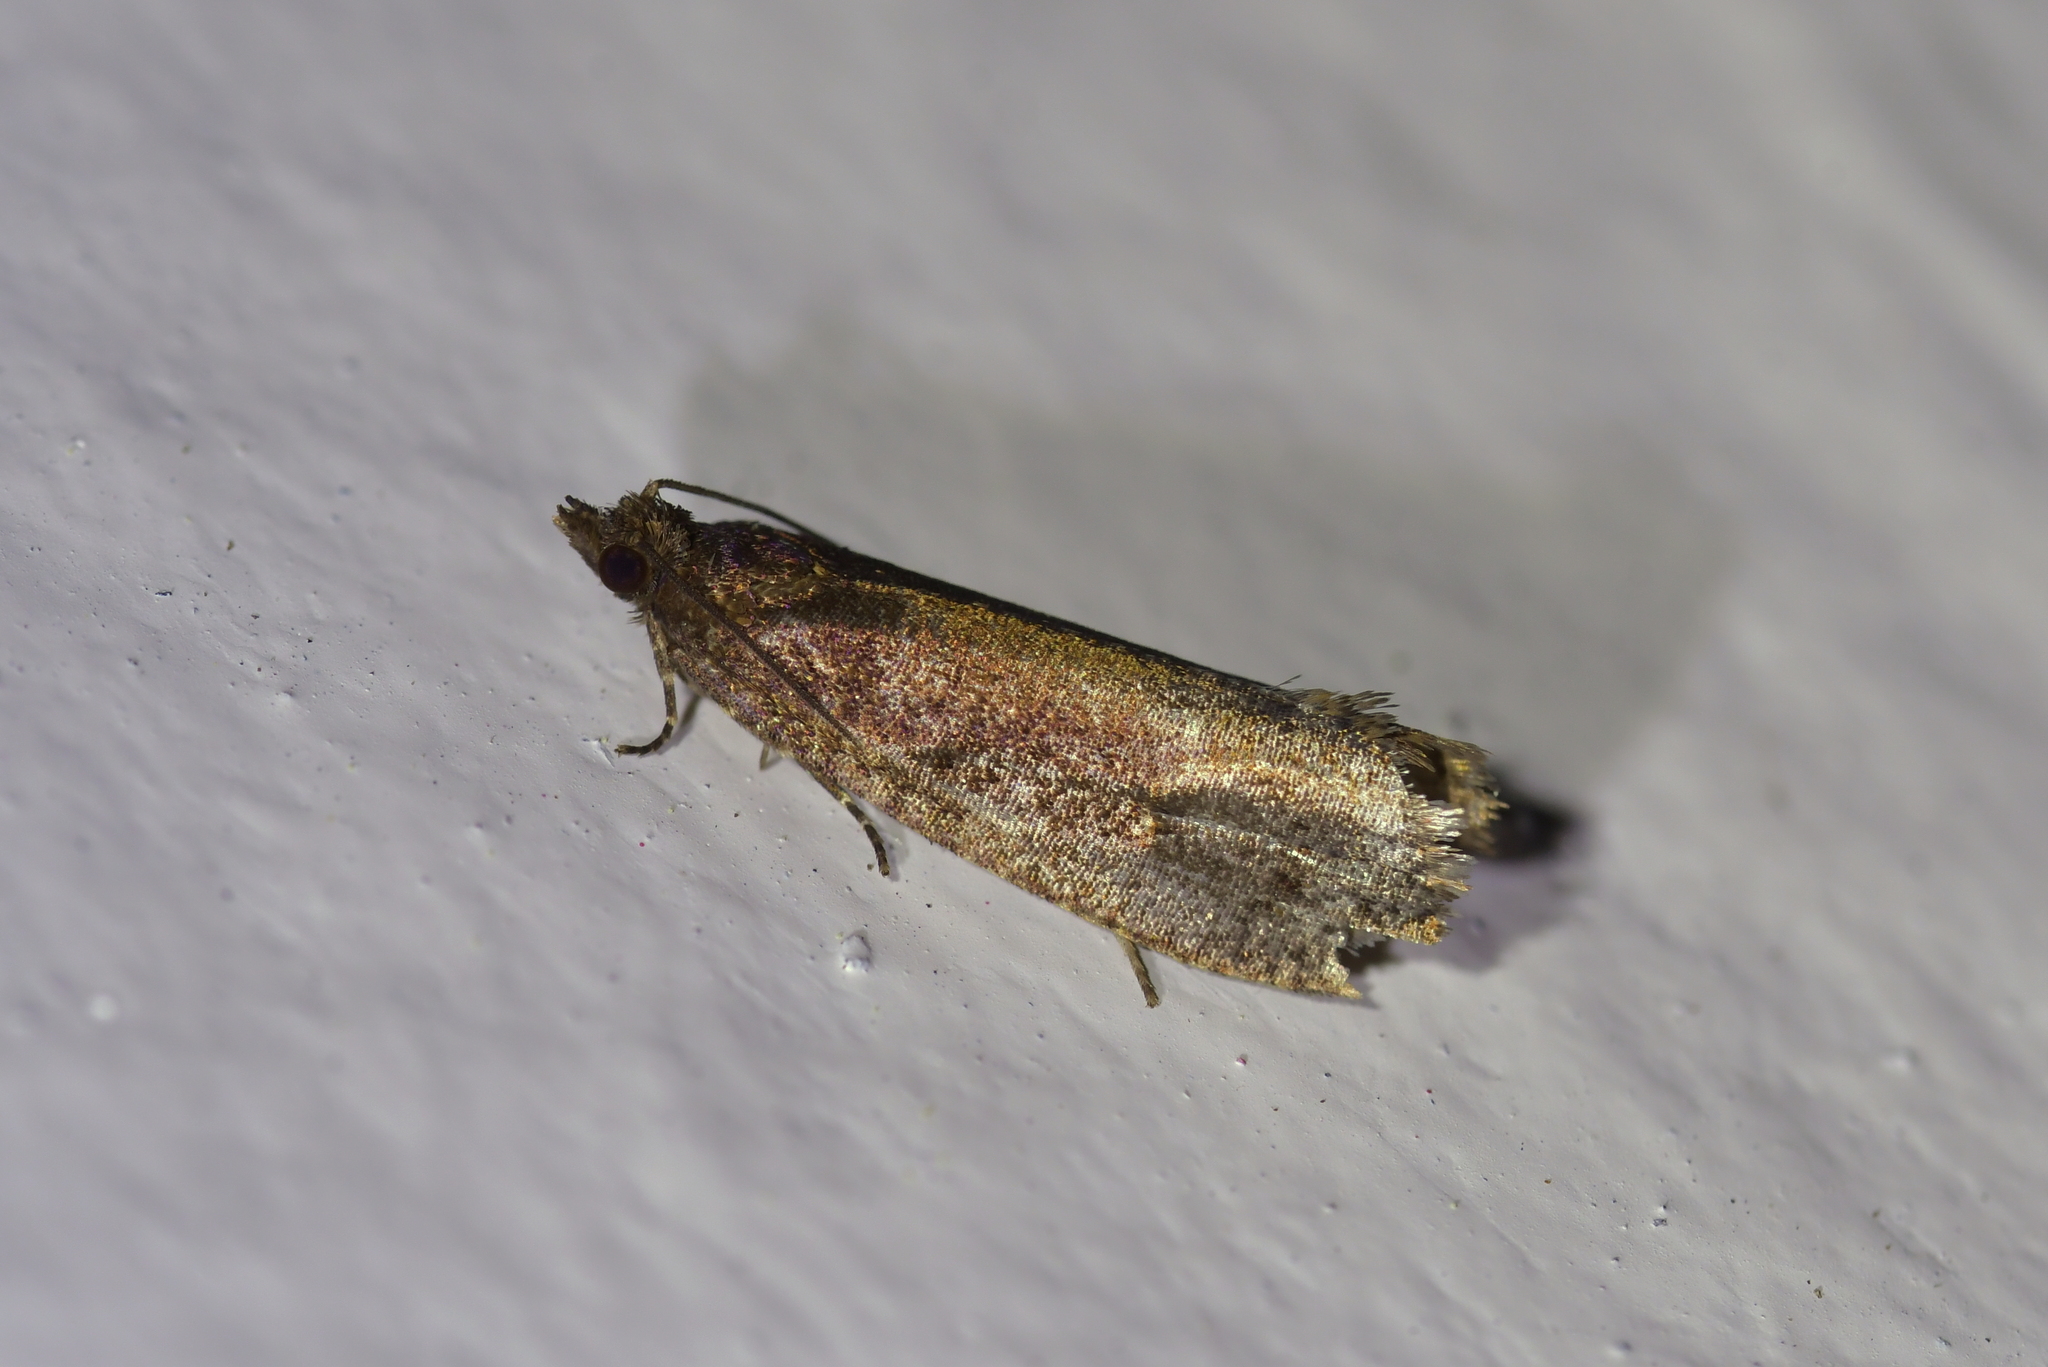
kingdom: Animalia
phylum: Arthropoda
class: Insecta
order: Lepidoptera
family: Tortricidae
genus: Cryptaspasma
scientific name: Cryptaspasma querula
